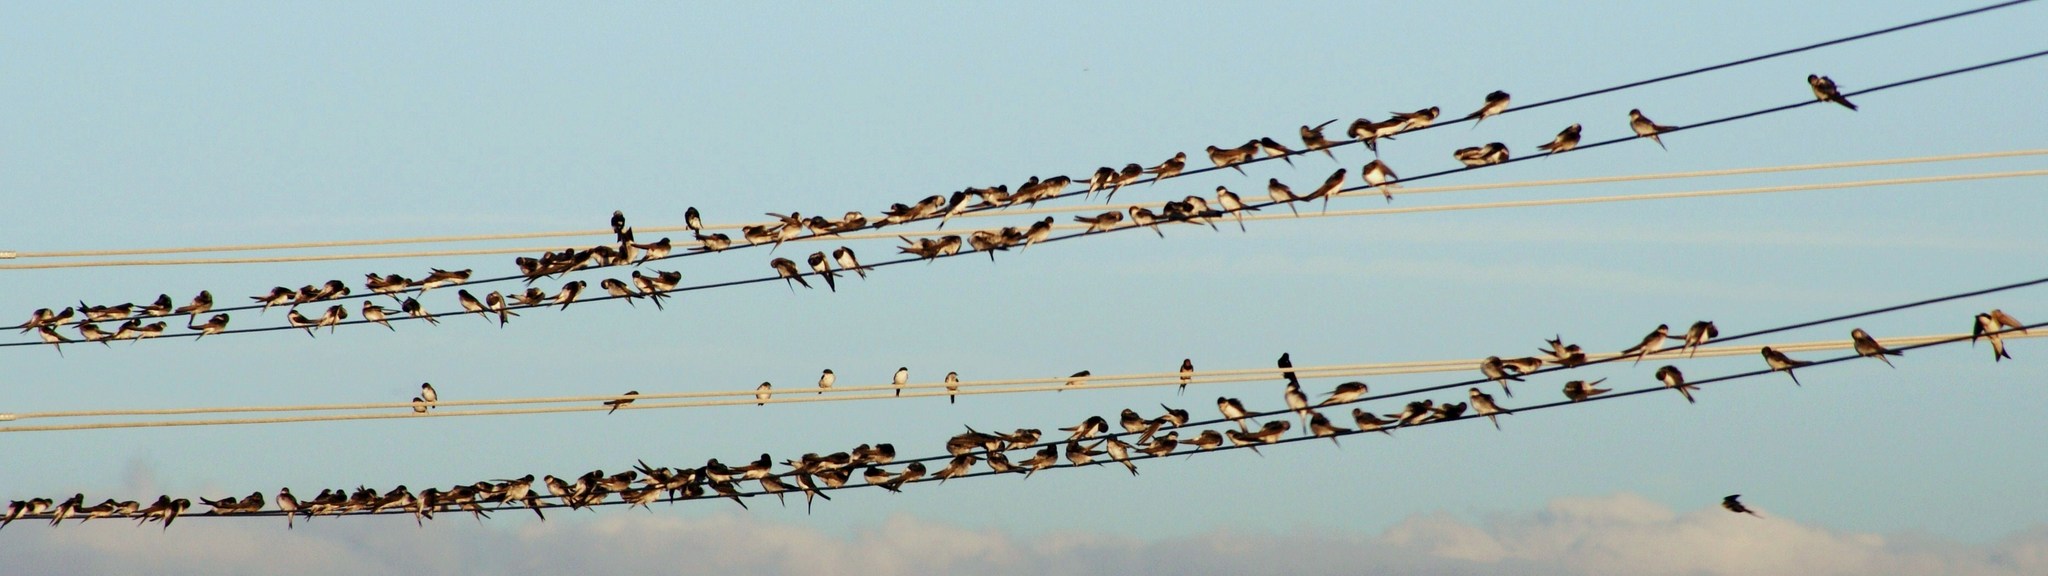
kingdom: Animalia
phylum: Chordata
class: Aves
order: Passeriformes
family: Hirundinidae
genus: Delichon
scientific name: Delichon urbicum
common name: Common house martin
